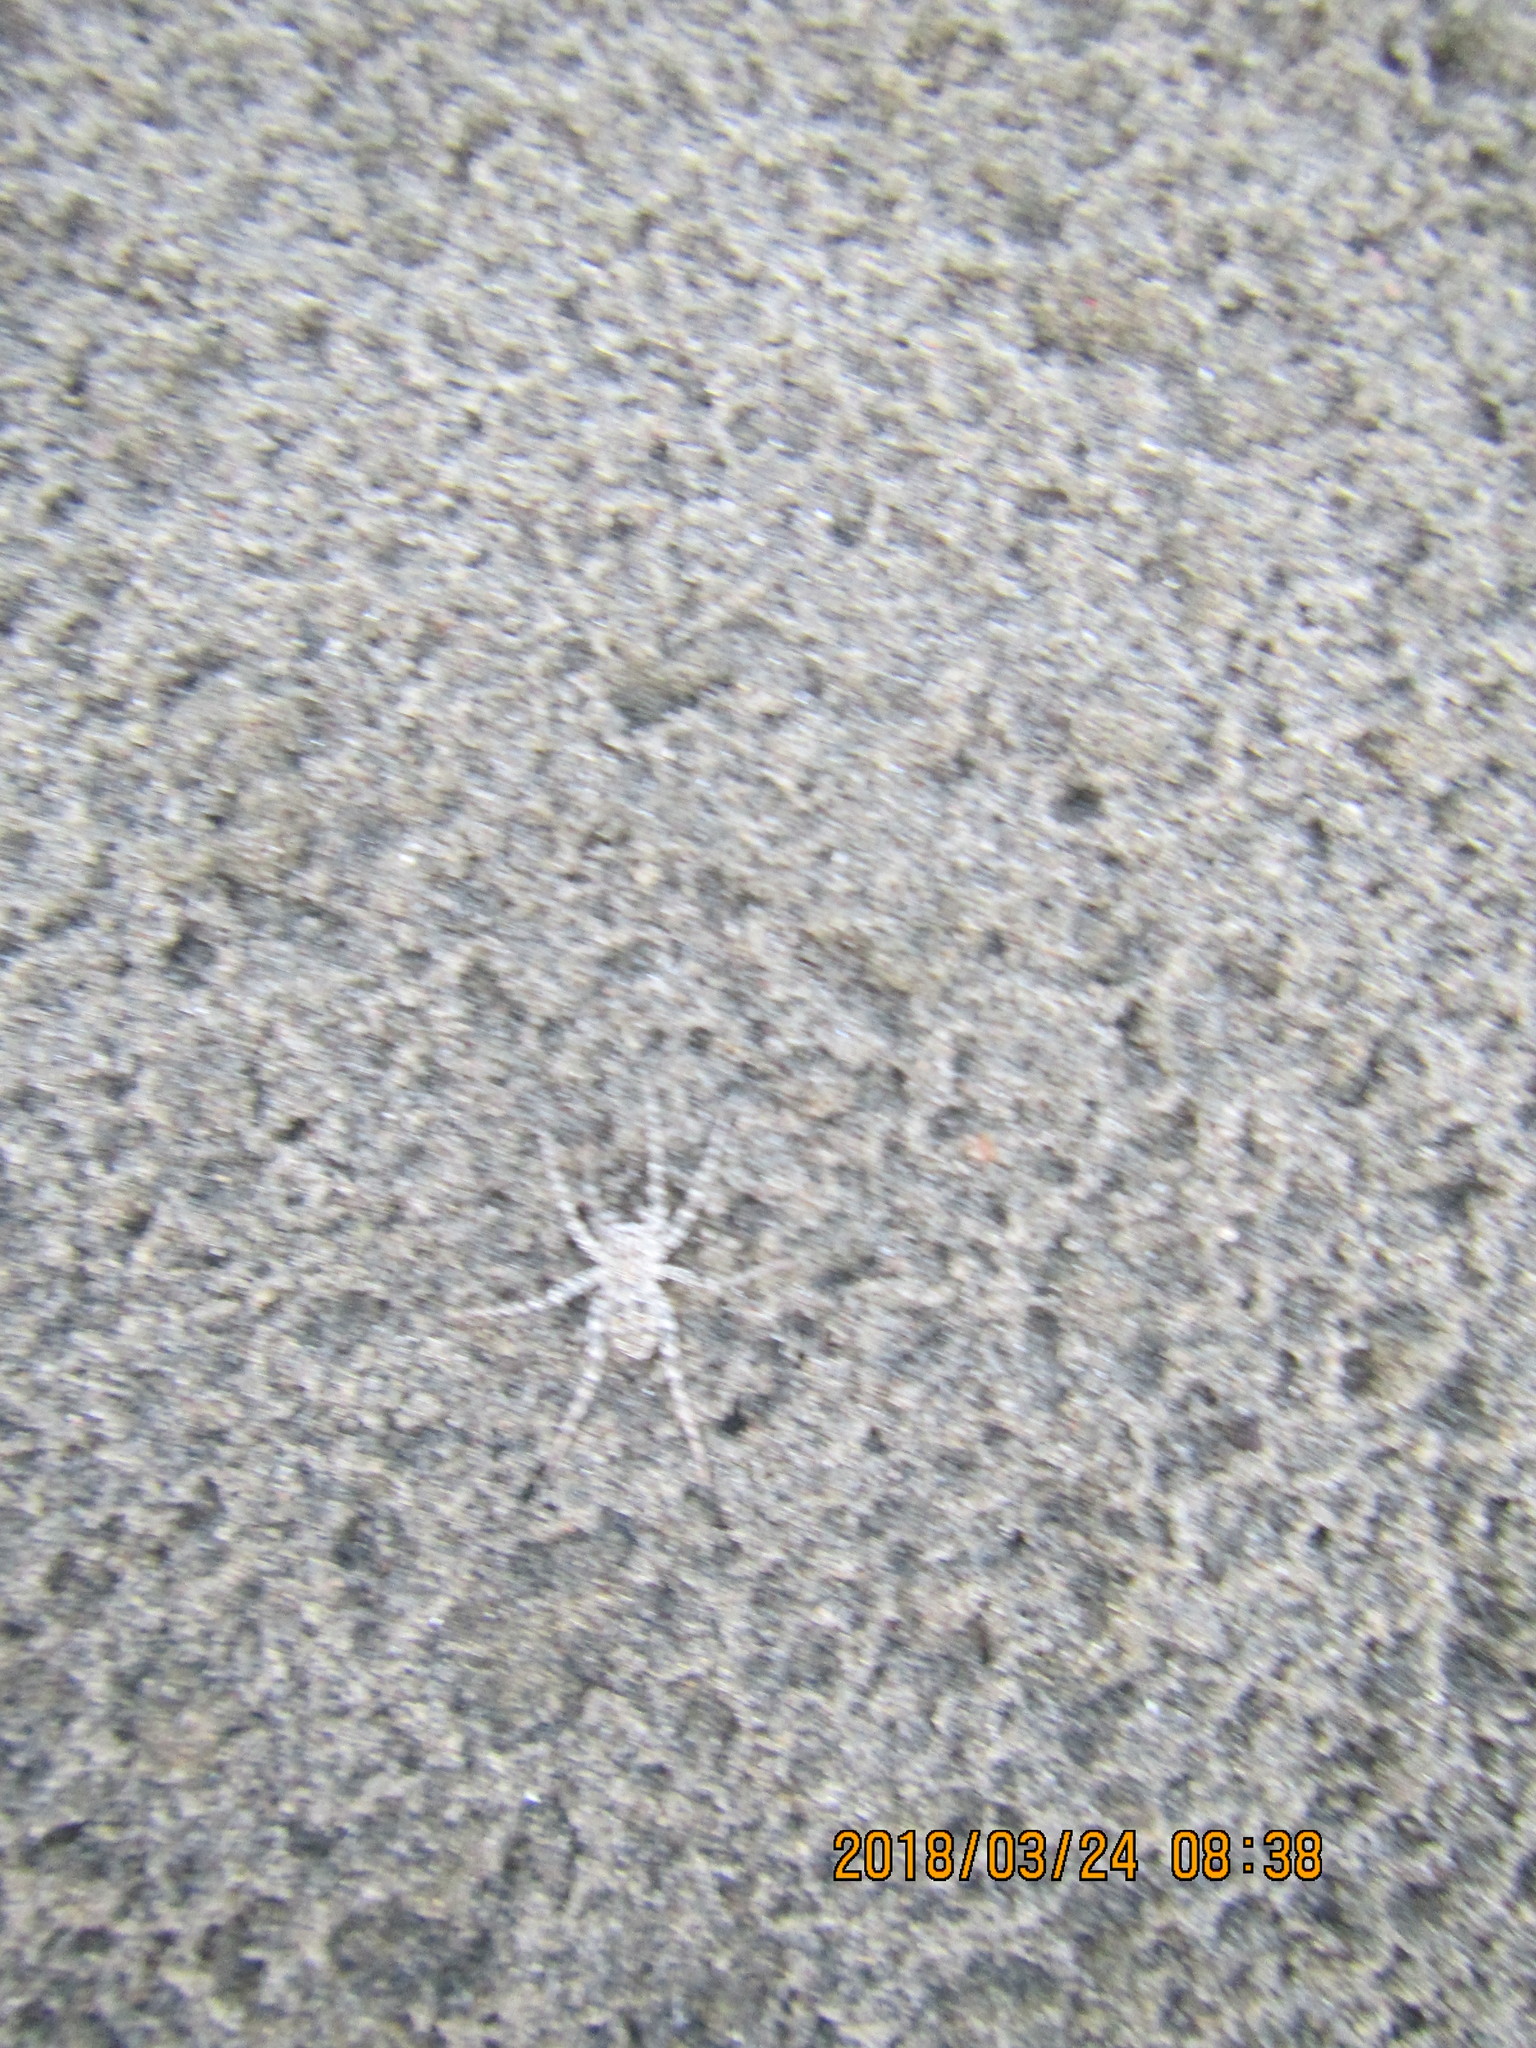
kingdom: Animalia
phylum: Arthropoda
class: Arachnida
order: Araneae
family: Lycosidae
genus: Anoteropsis
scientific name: Anoteropsis litoralis
